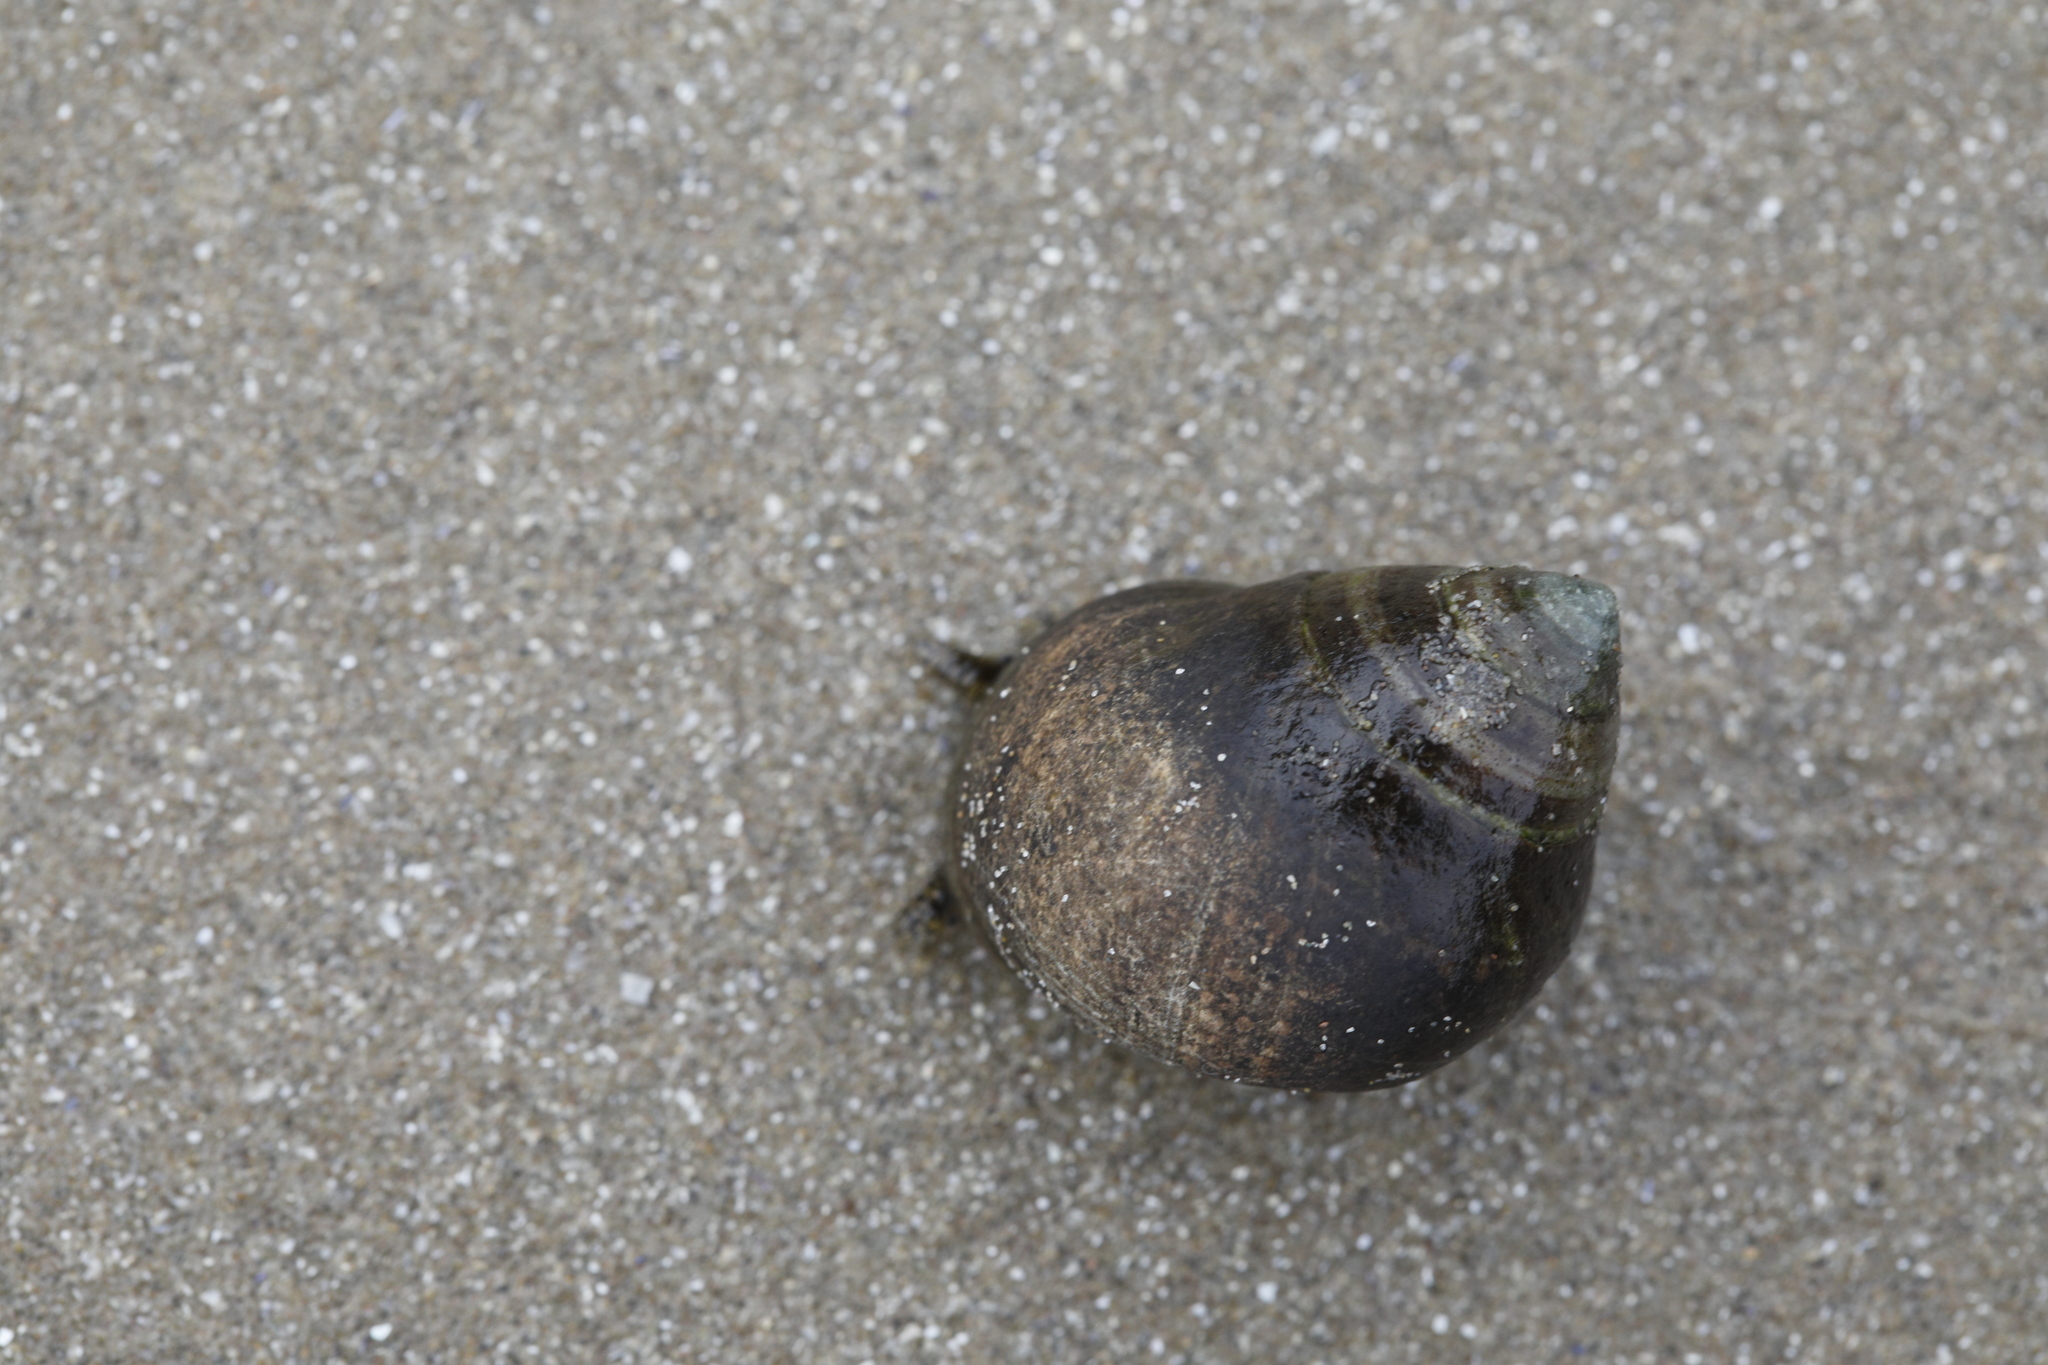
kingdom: Animalia
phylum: Mollusca
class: Gastropoda
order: Littorinimorpha
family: Littorinidae
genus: Littorina
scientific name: Littorina littorea
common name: Common periwinkle
